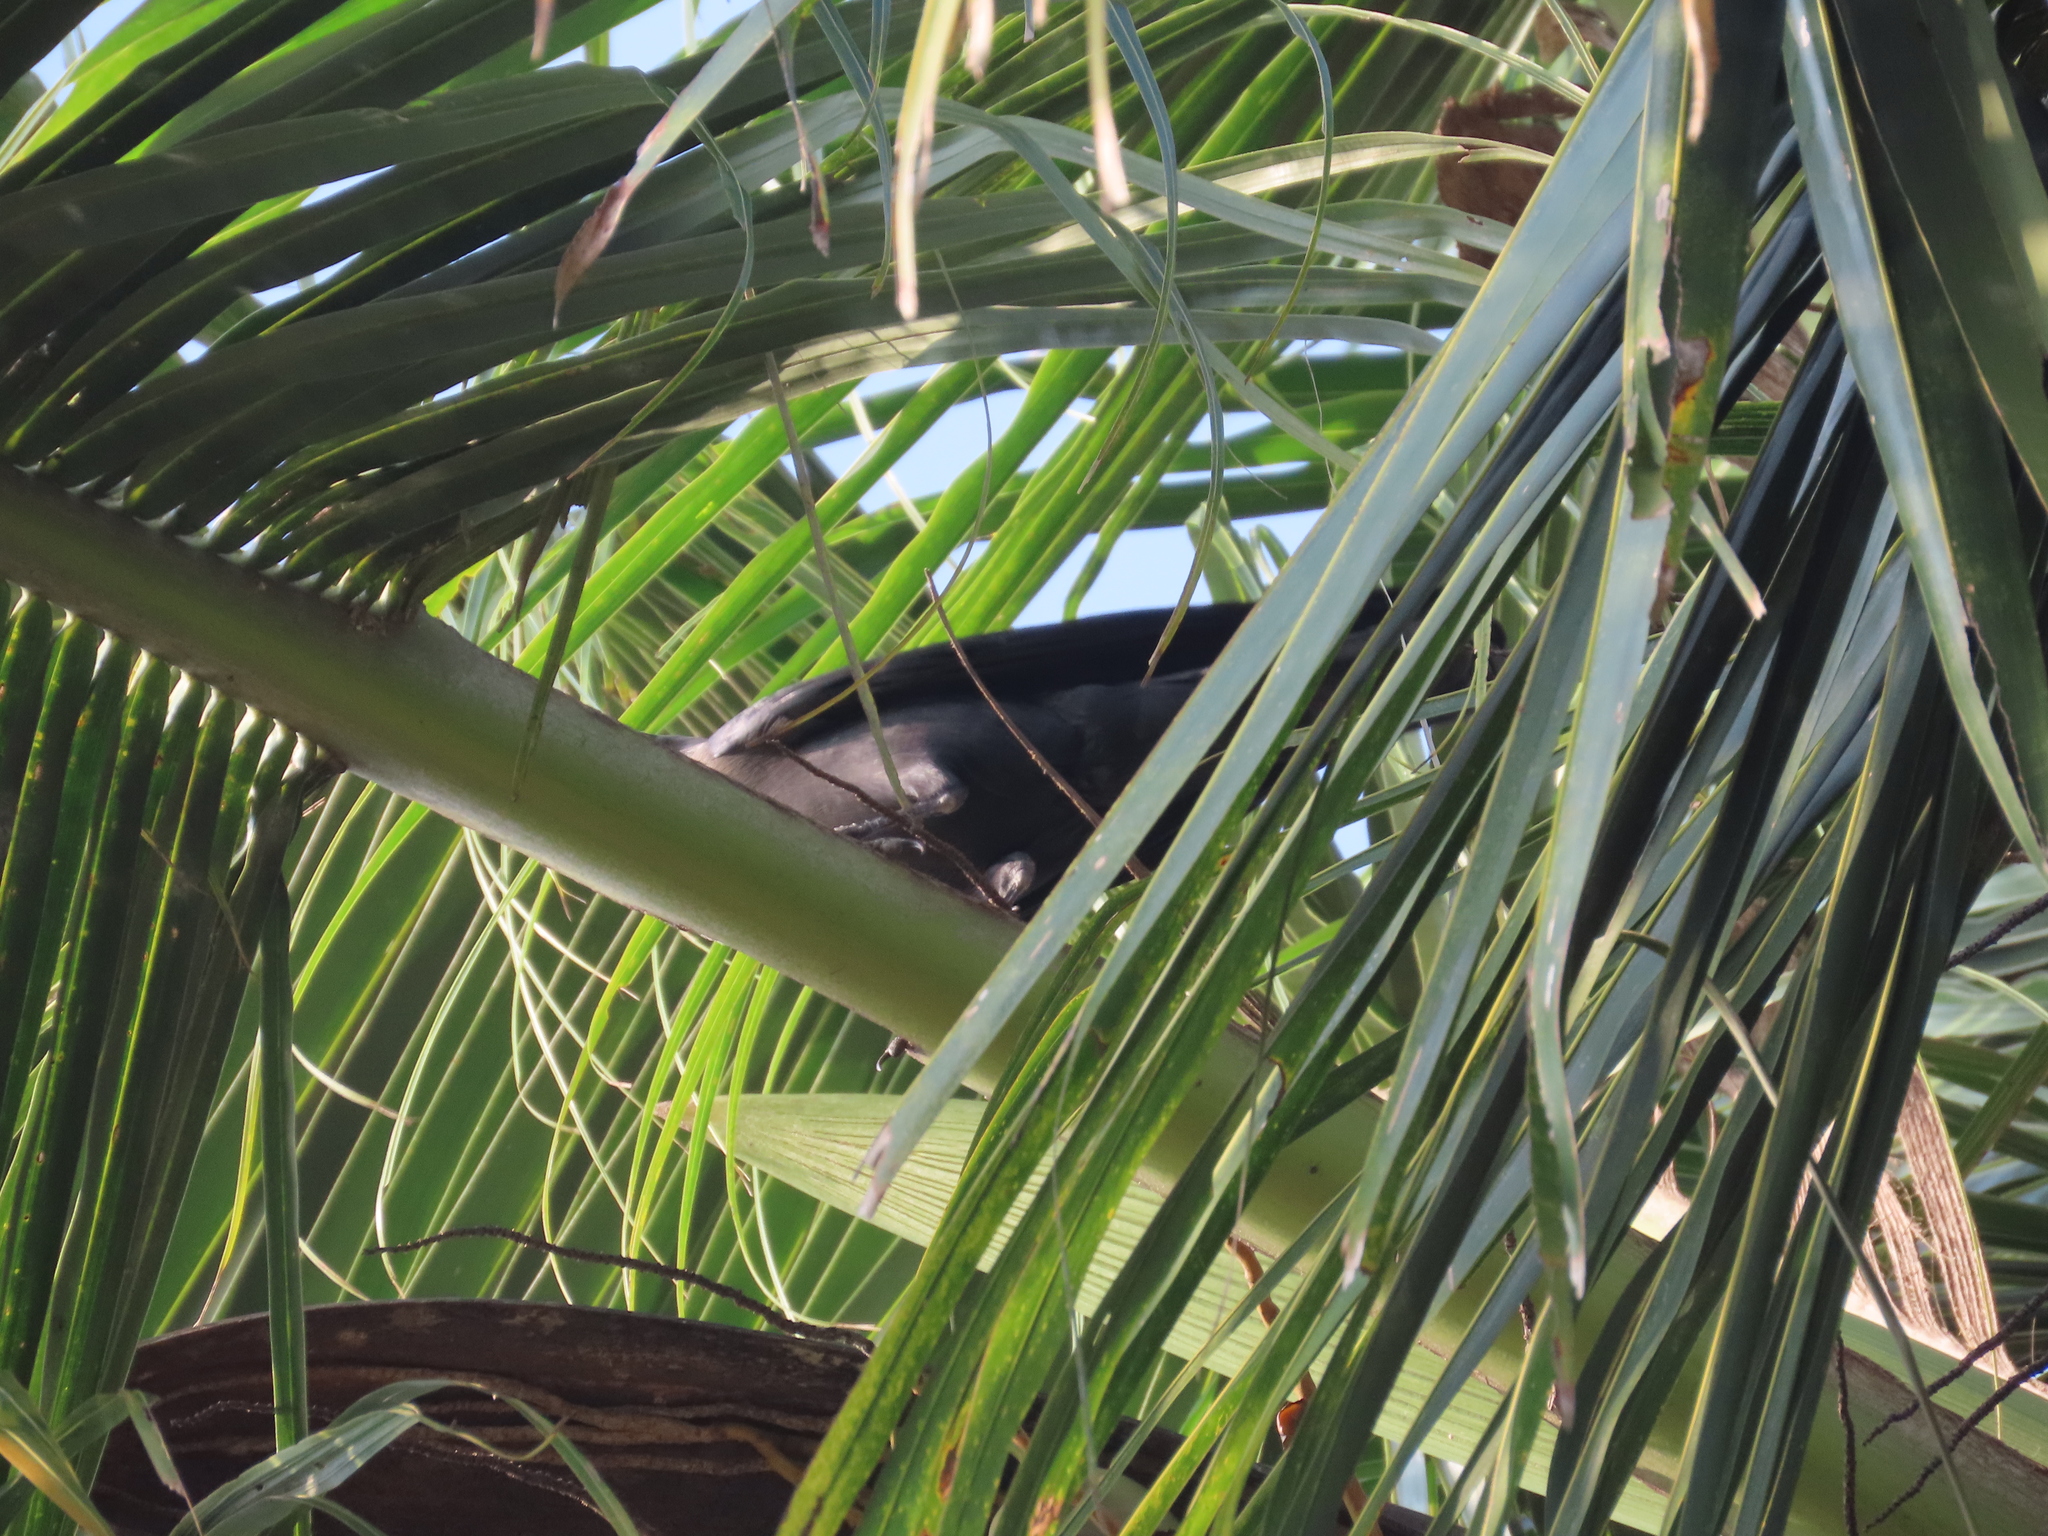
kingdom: Animalia
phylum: Chordata
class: Aves
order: Passeriformes
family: Corvidae
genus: Corvus
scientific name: Corvus splendens
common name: House crow
